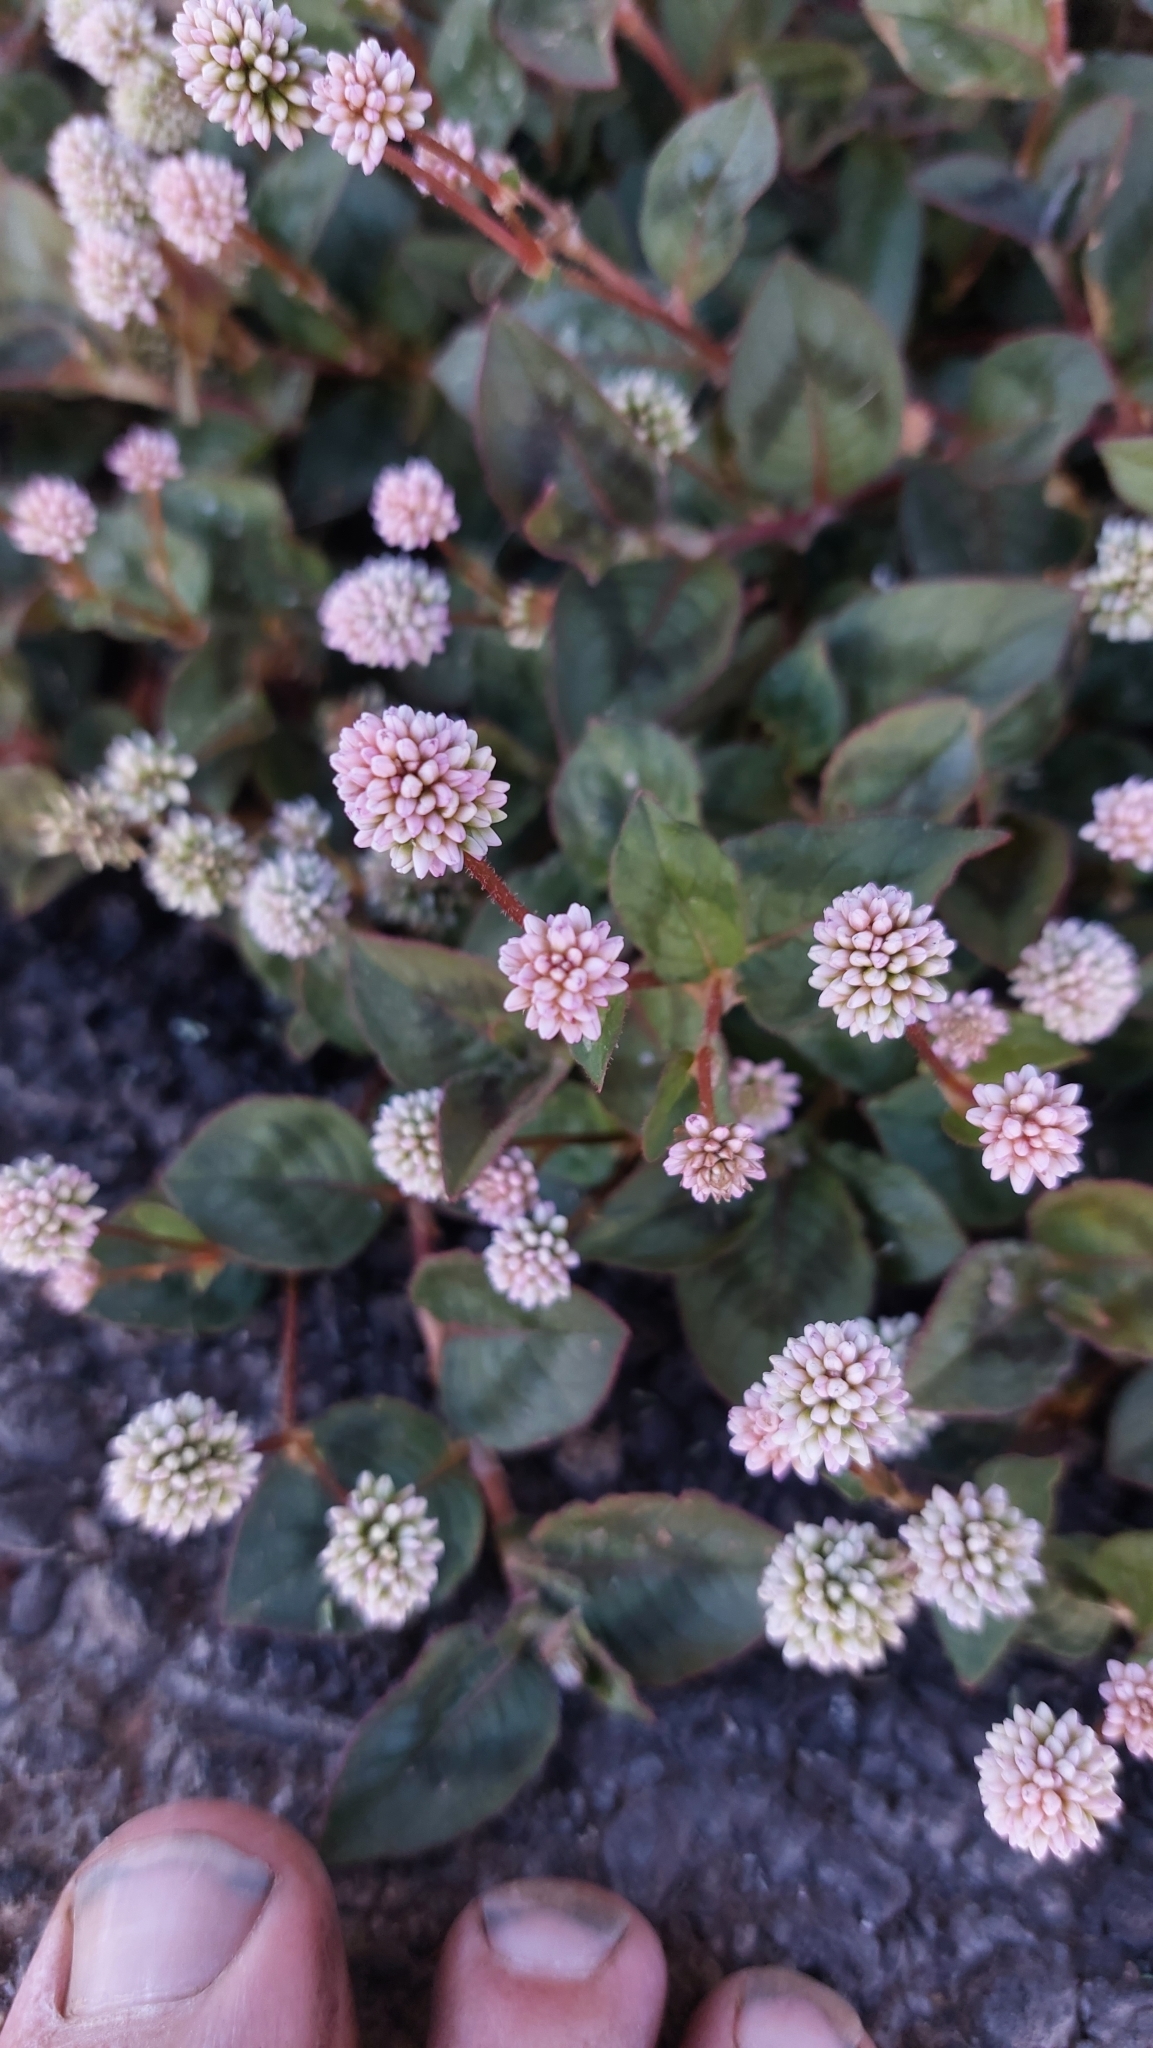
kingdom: Plantae
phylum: Tracheophyta
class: Magnoliopsida
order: Caryophyllales
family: Polygonaceae
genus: Persicaria
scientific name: Persicaria capitata
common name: Pinkhead smartweed
